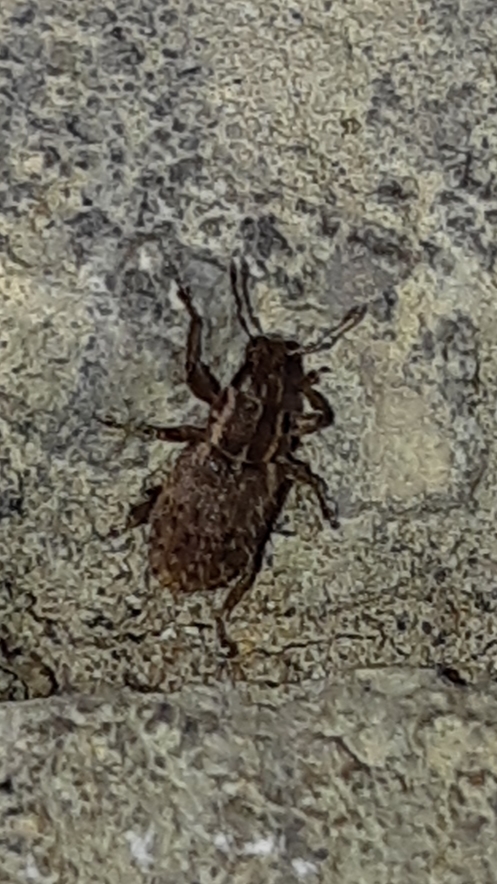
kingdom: Animalia
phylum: Arthropoda
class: Insecta
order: Coleoptera
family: Curculionidae
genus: Sitona
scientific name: Sitona hispidulus
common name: Clover weevil
